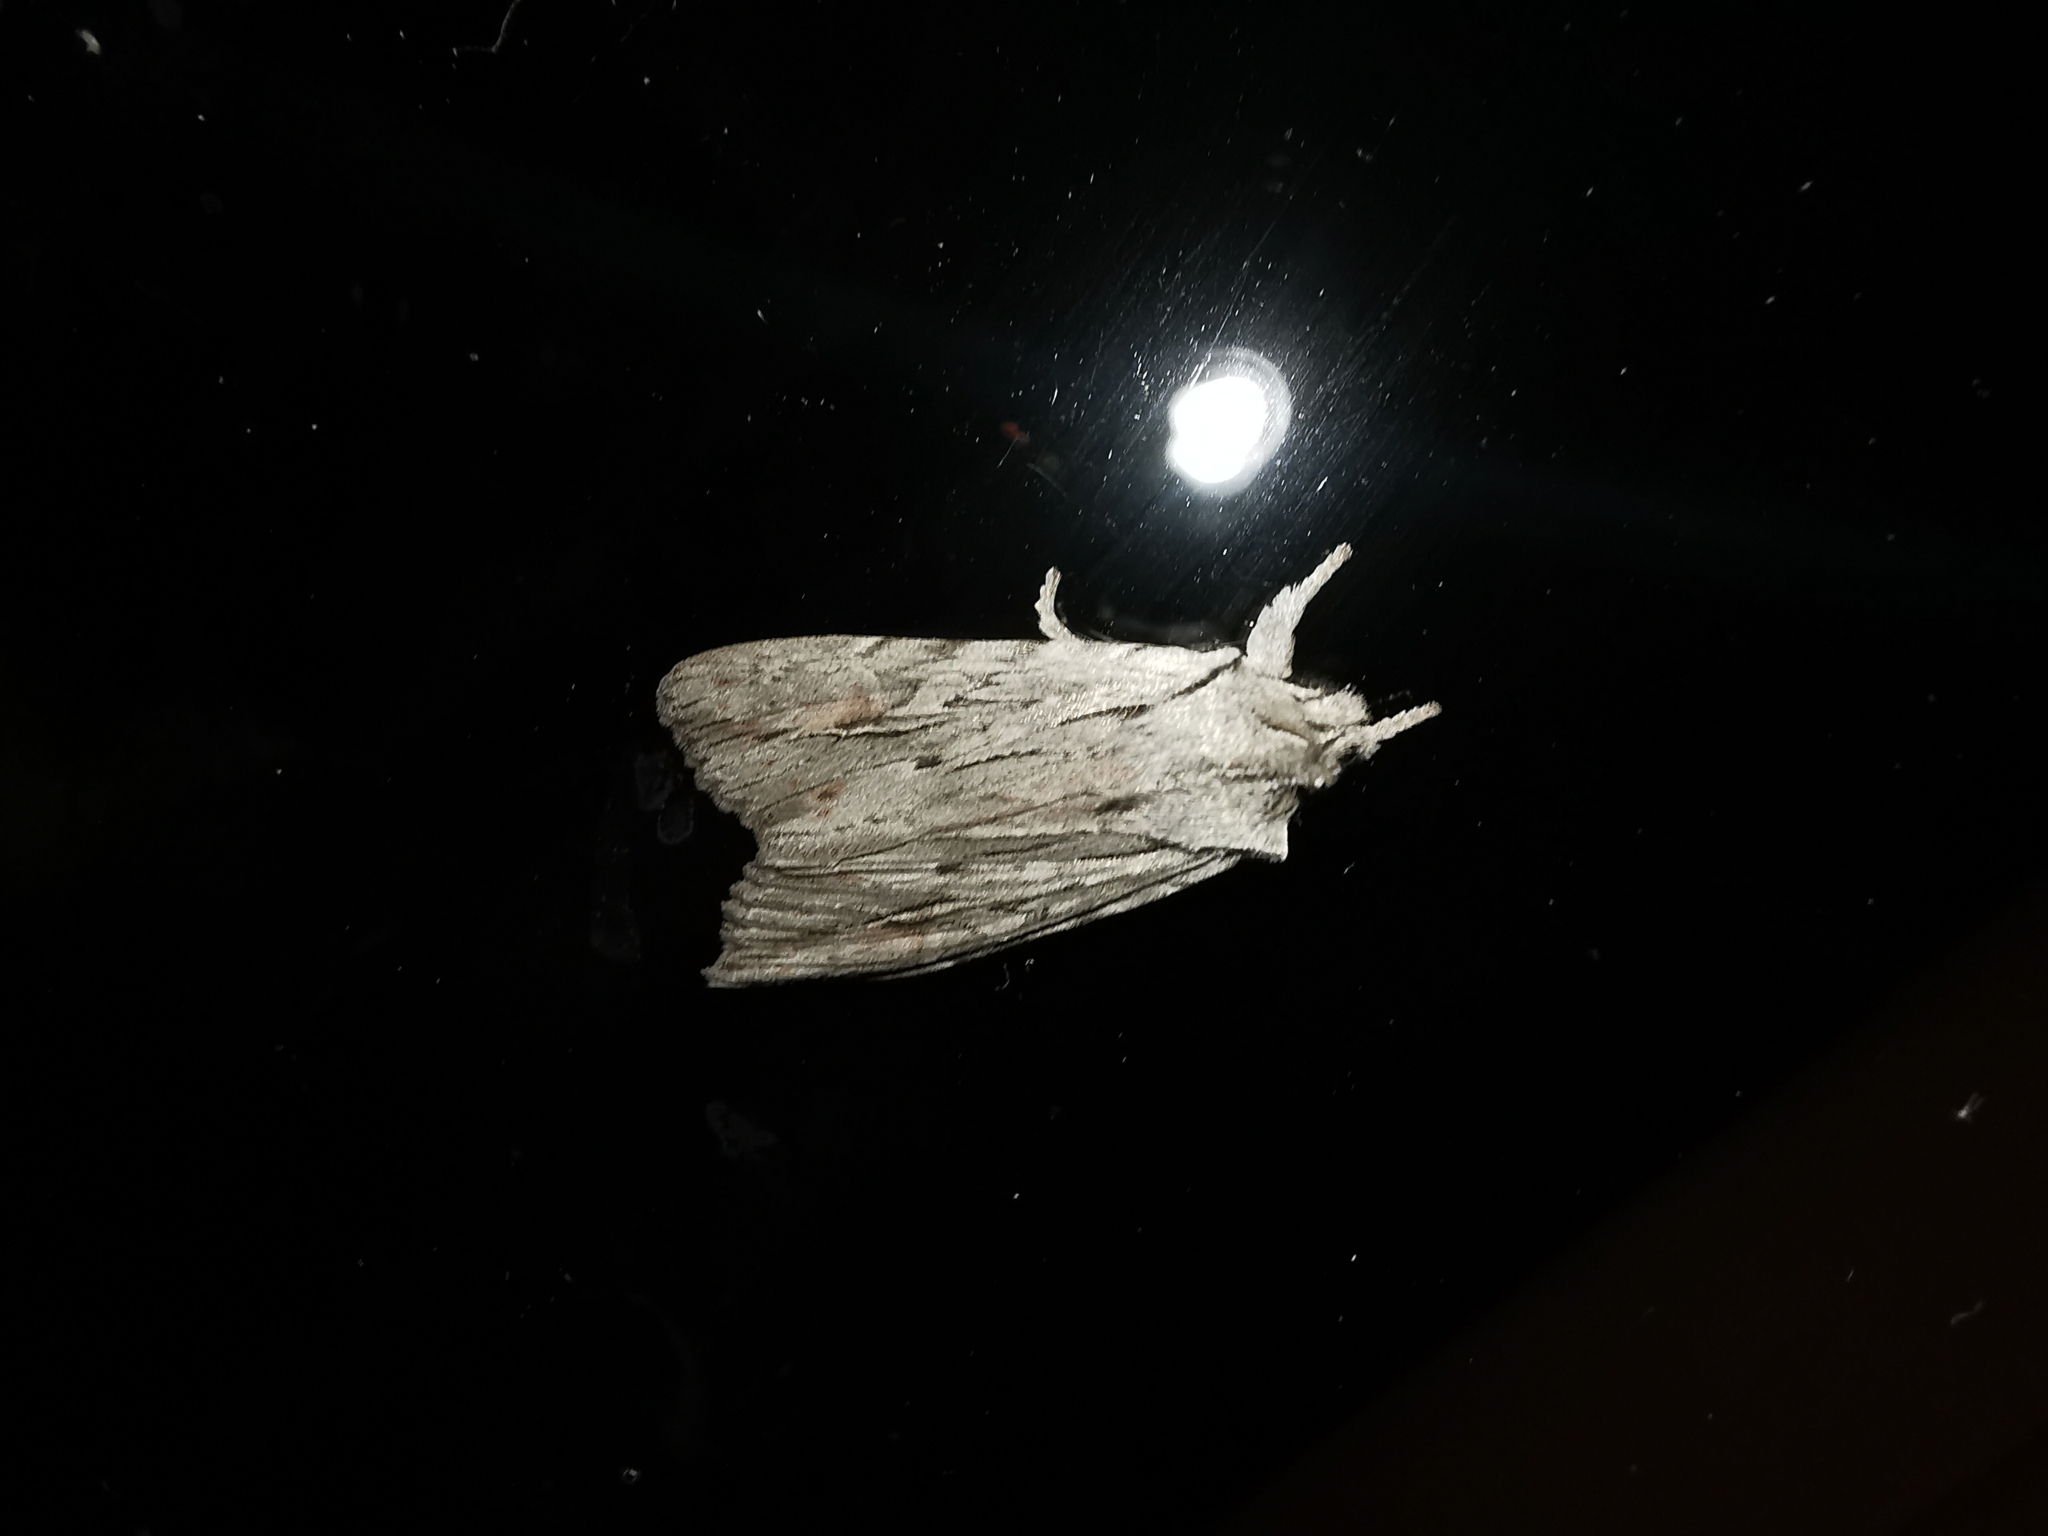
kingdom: Animalia
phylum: Arthropoda
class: Insecta
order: Lepidoptera
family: Noctuidae
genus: Lithophane
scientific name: Lithophane lapidea
